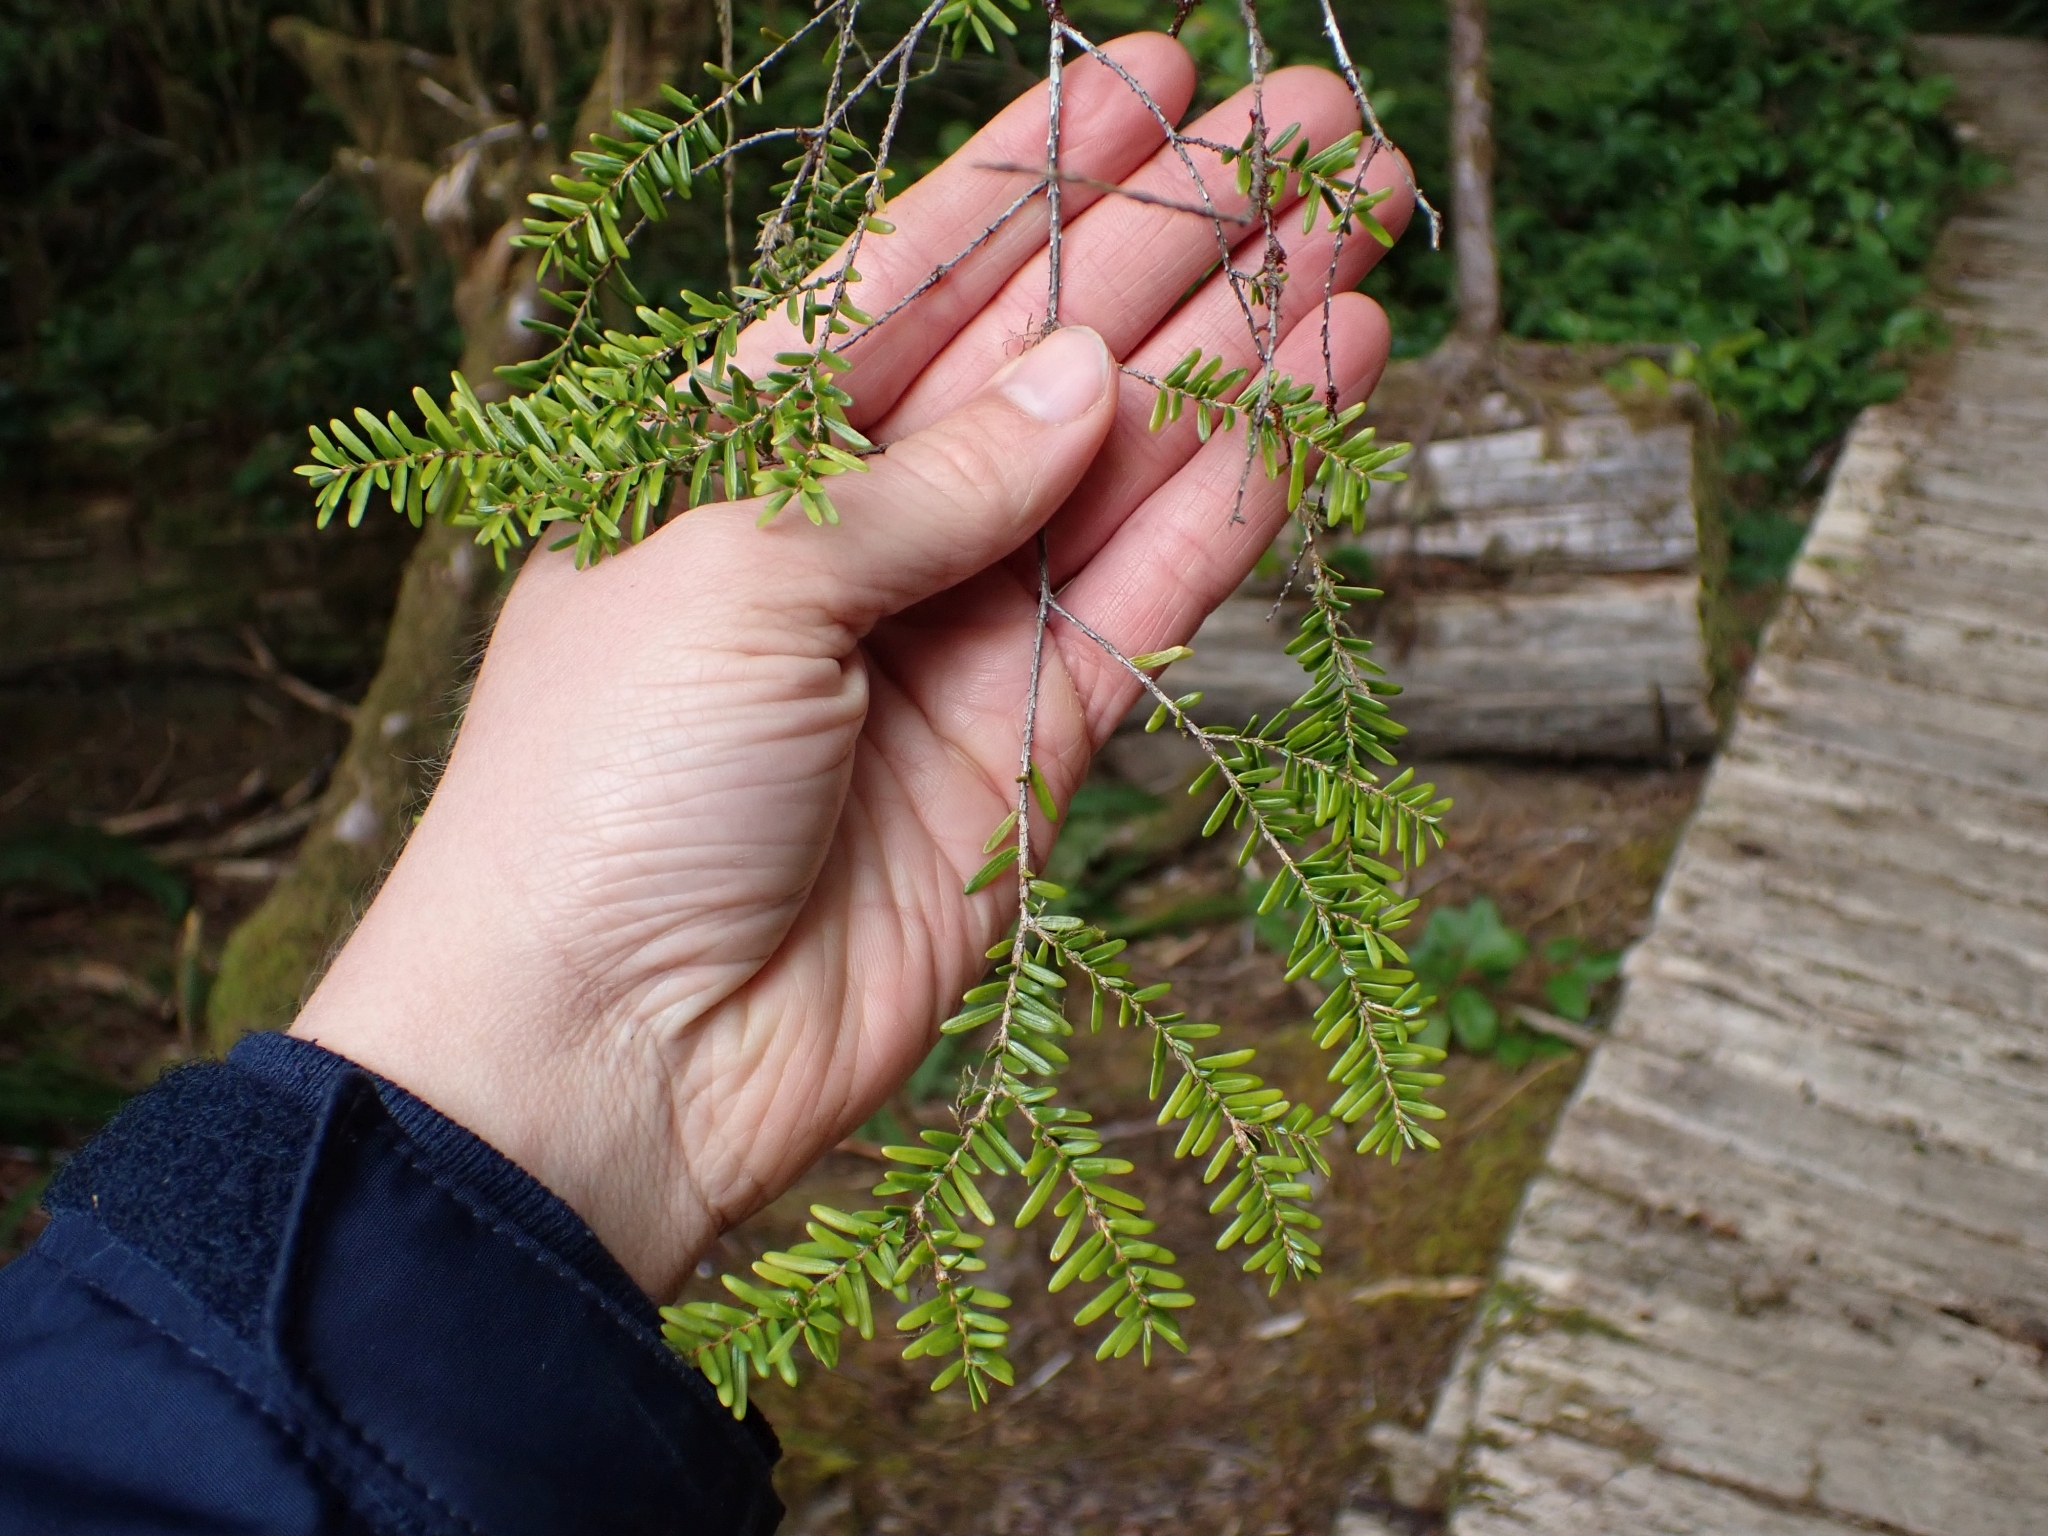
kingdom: Plantae
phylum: Tracheophyta
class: Pinopsida
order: Pinales
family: Pinaceae
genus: Tsuga
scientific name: Tsuga heterophylla
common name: Western hemlock
